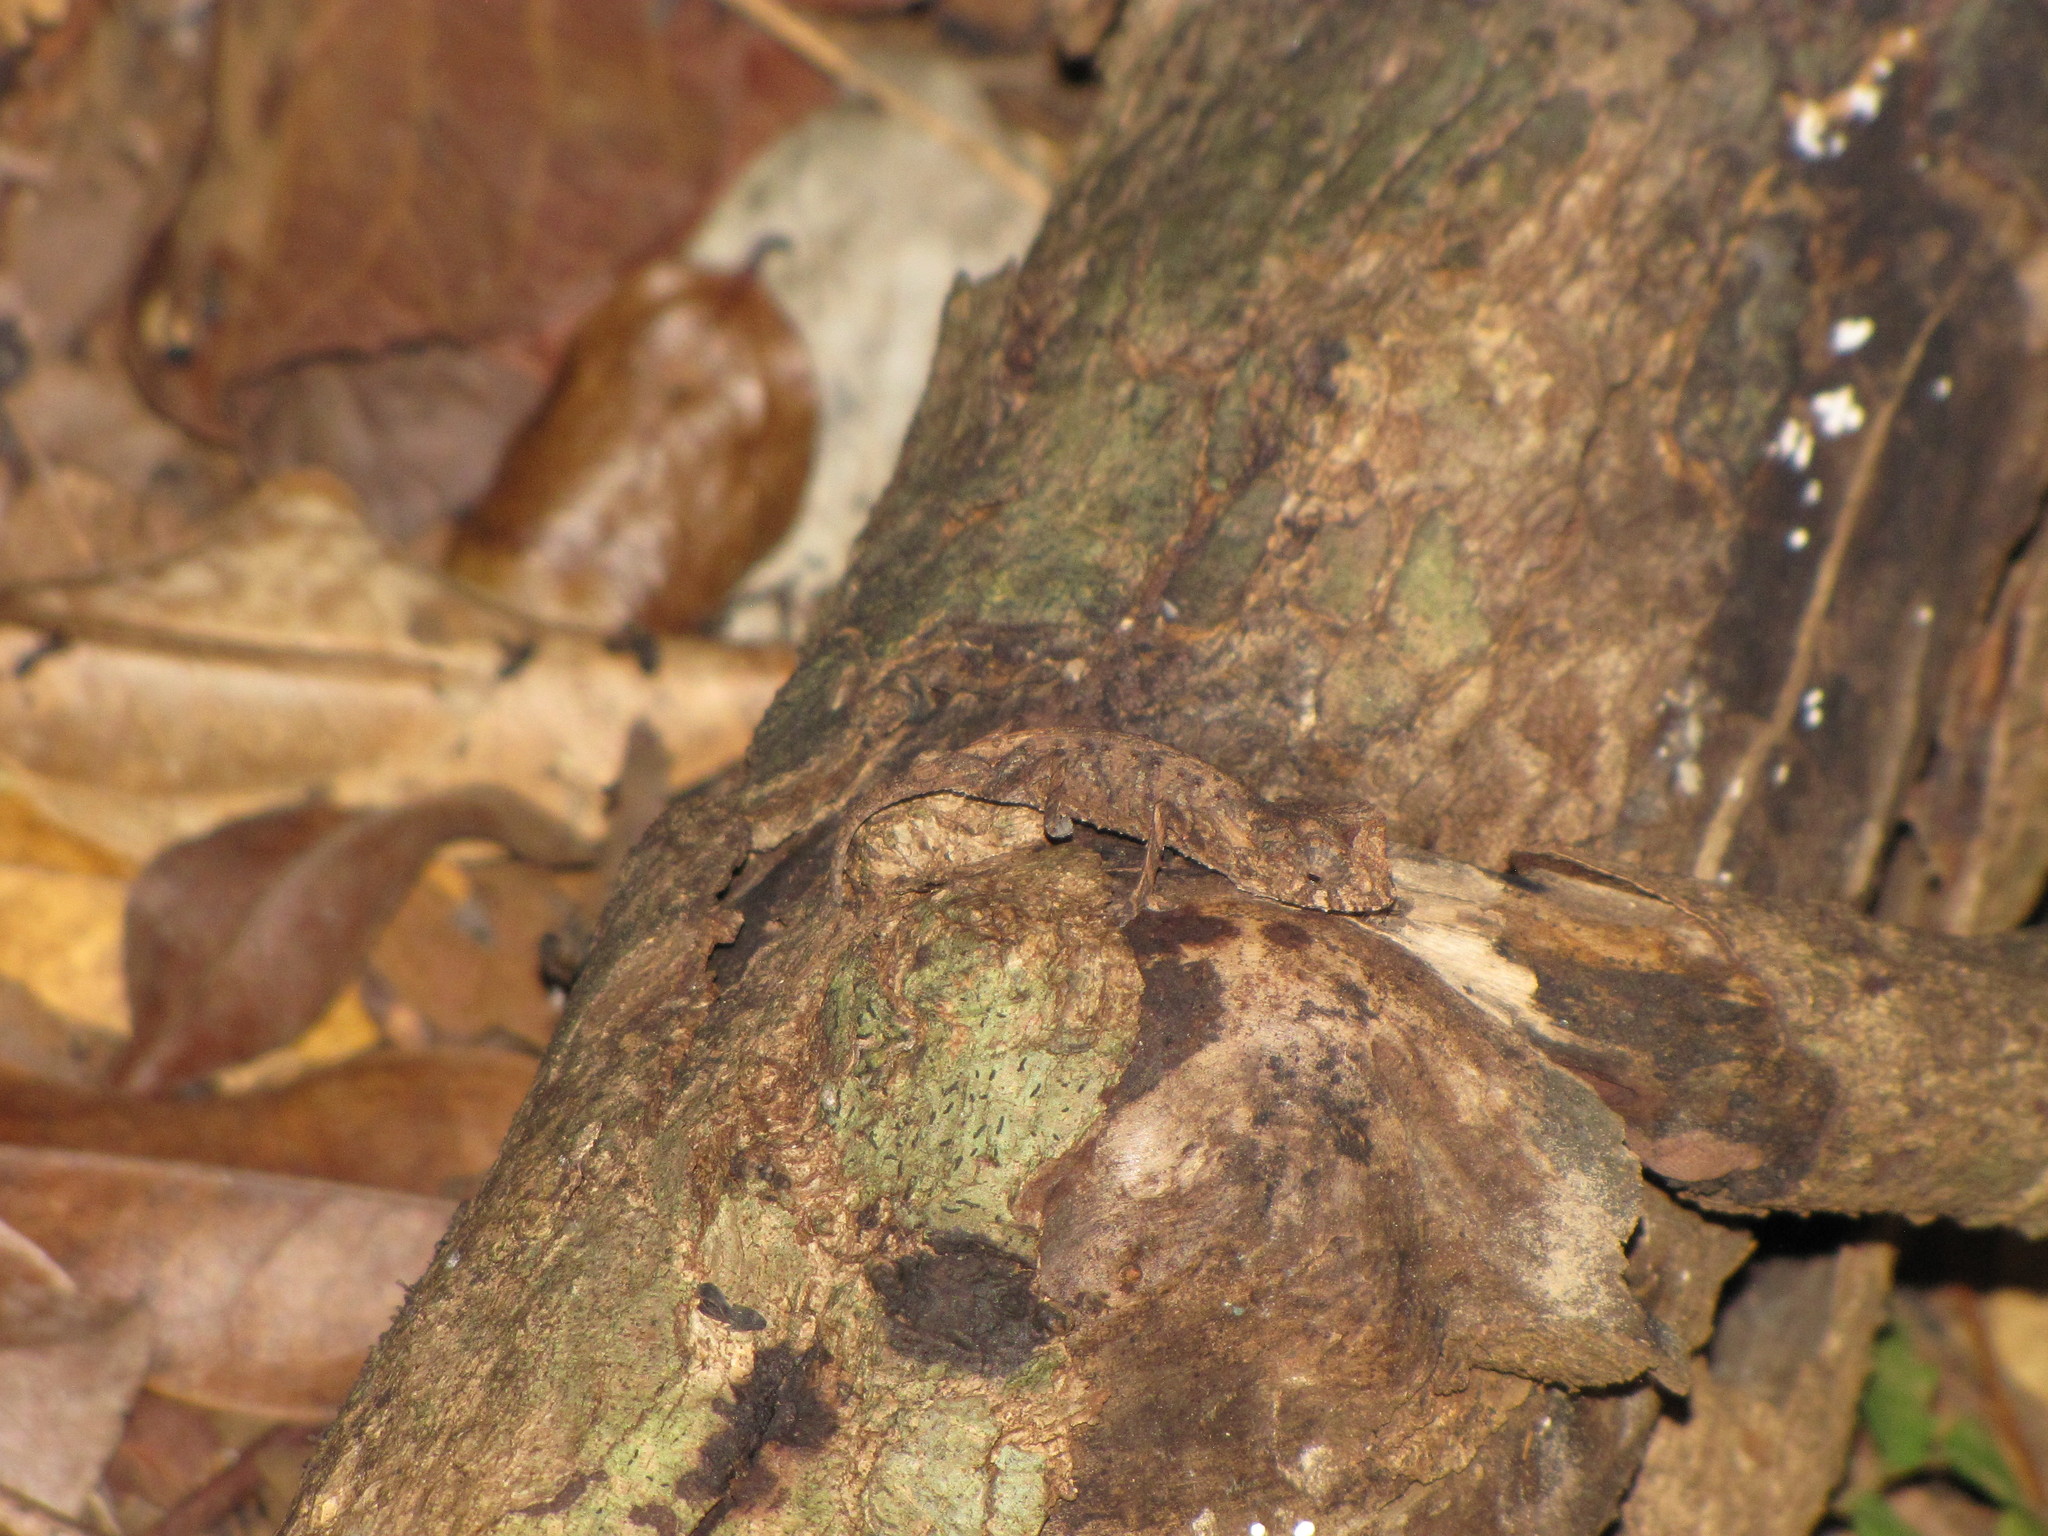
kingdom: Animalia
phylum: Chordata
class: Squamata
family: Chamaeleonidae
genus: Brookesia
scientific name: Brookesia stumpffi
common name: Plated leaf chameleon
